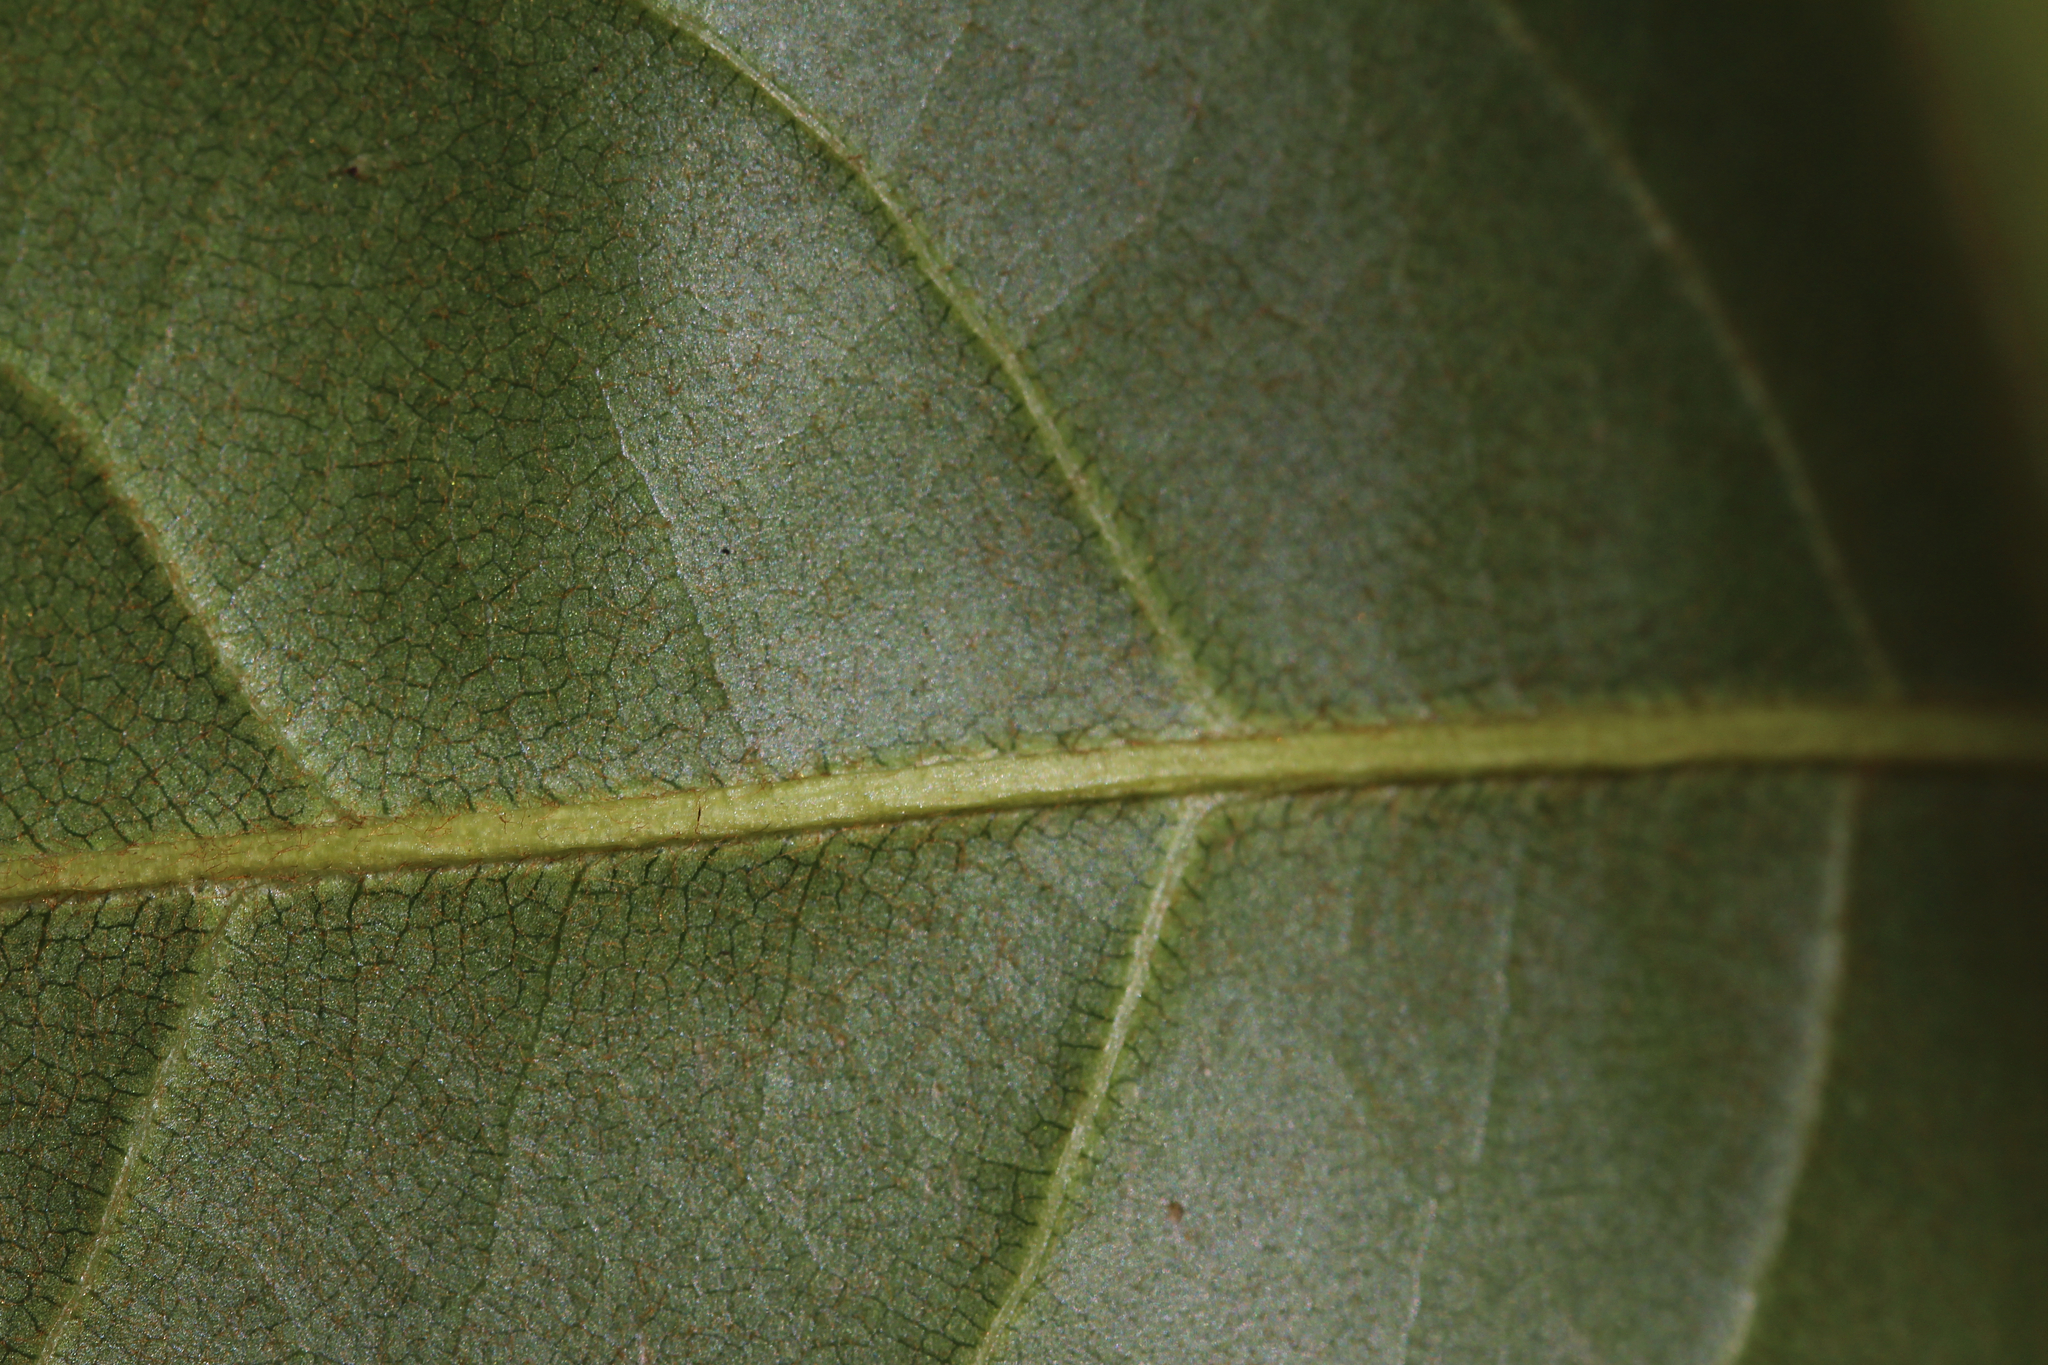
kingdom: Plantae
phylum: Tracheophyta
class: Magnoliopsida
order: Magnoliales
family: Magnoliaceae
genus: Magnolia
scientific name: Magnolia virginiana
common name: Swamp bay
